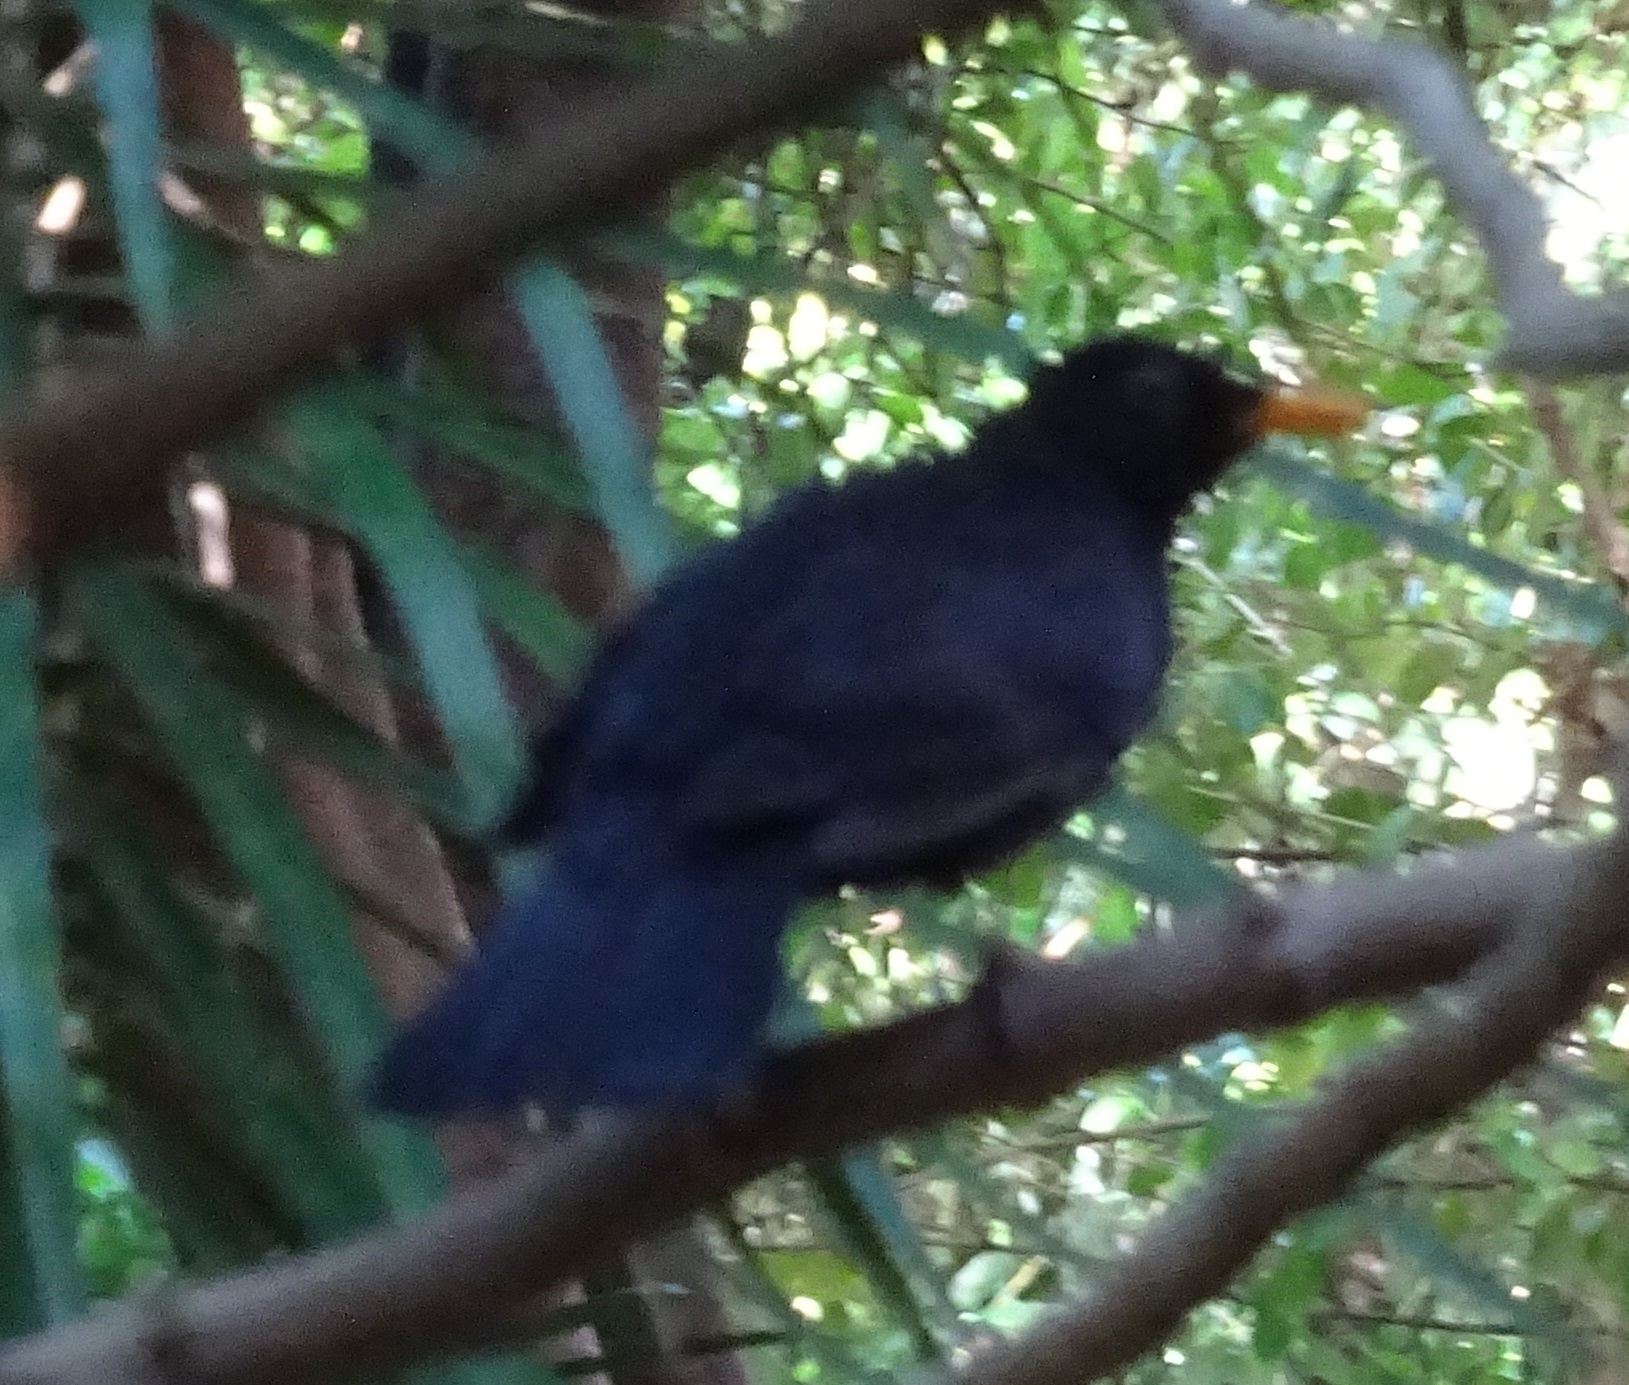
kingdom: Animalia
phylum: Chordata
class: Aves
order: Passeriformes
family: Turdidae
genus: Turdus
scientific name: Turdus merula
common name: Common blackbird
